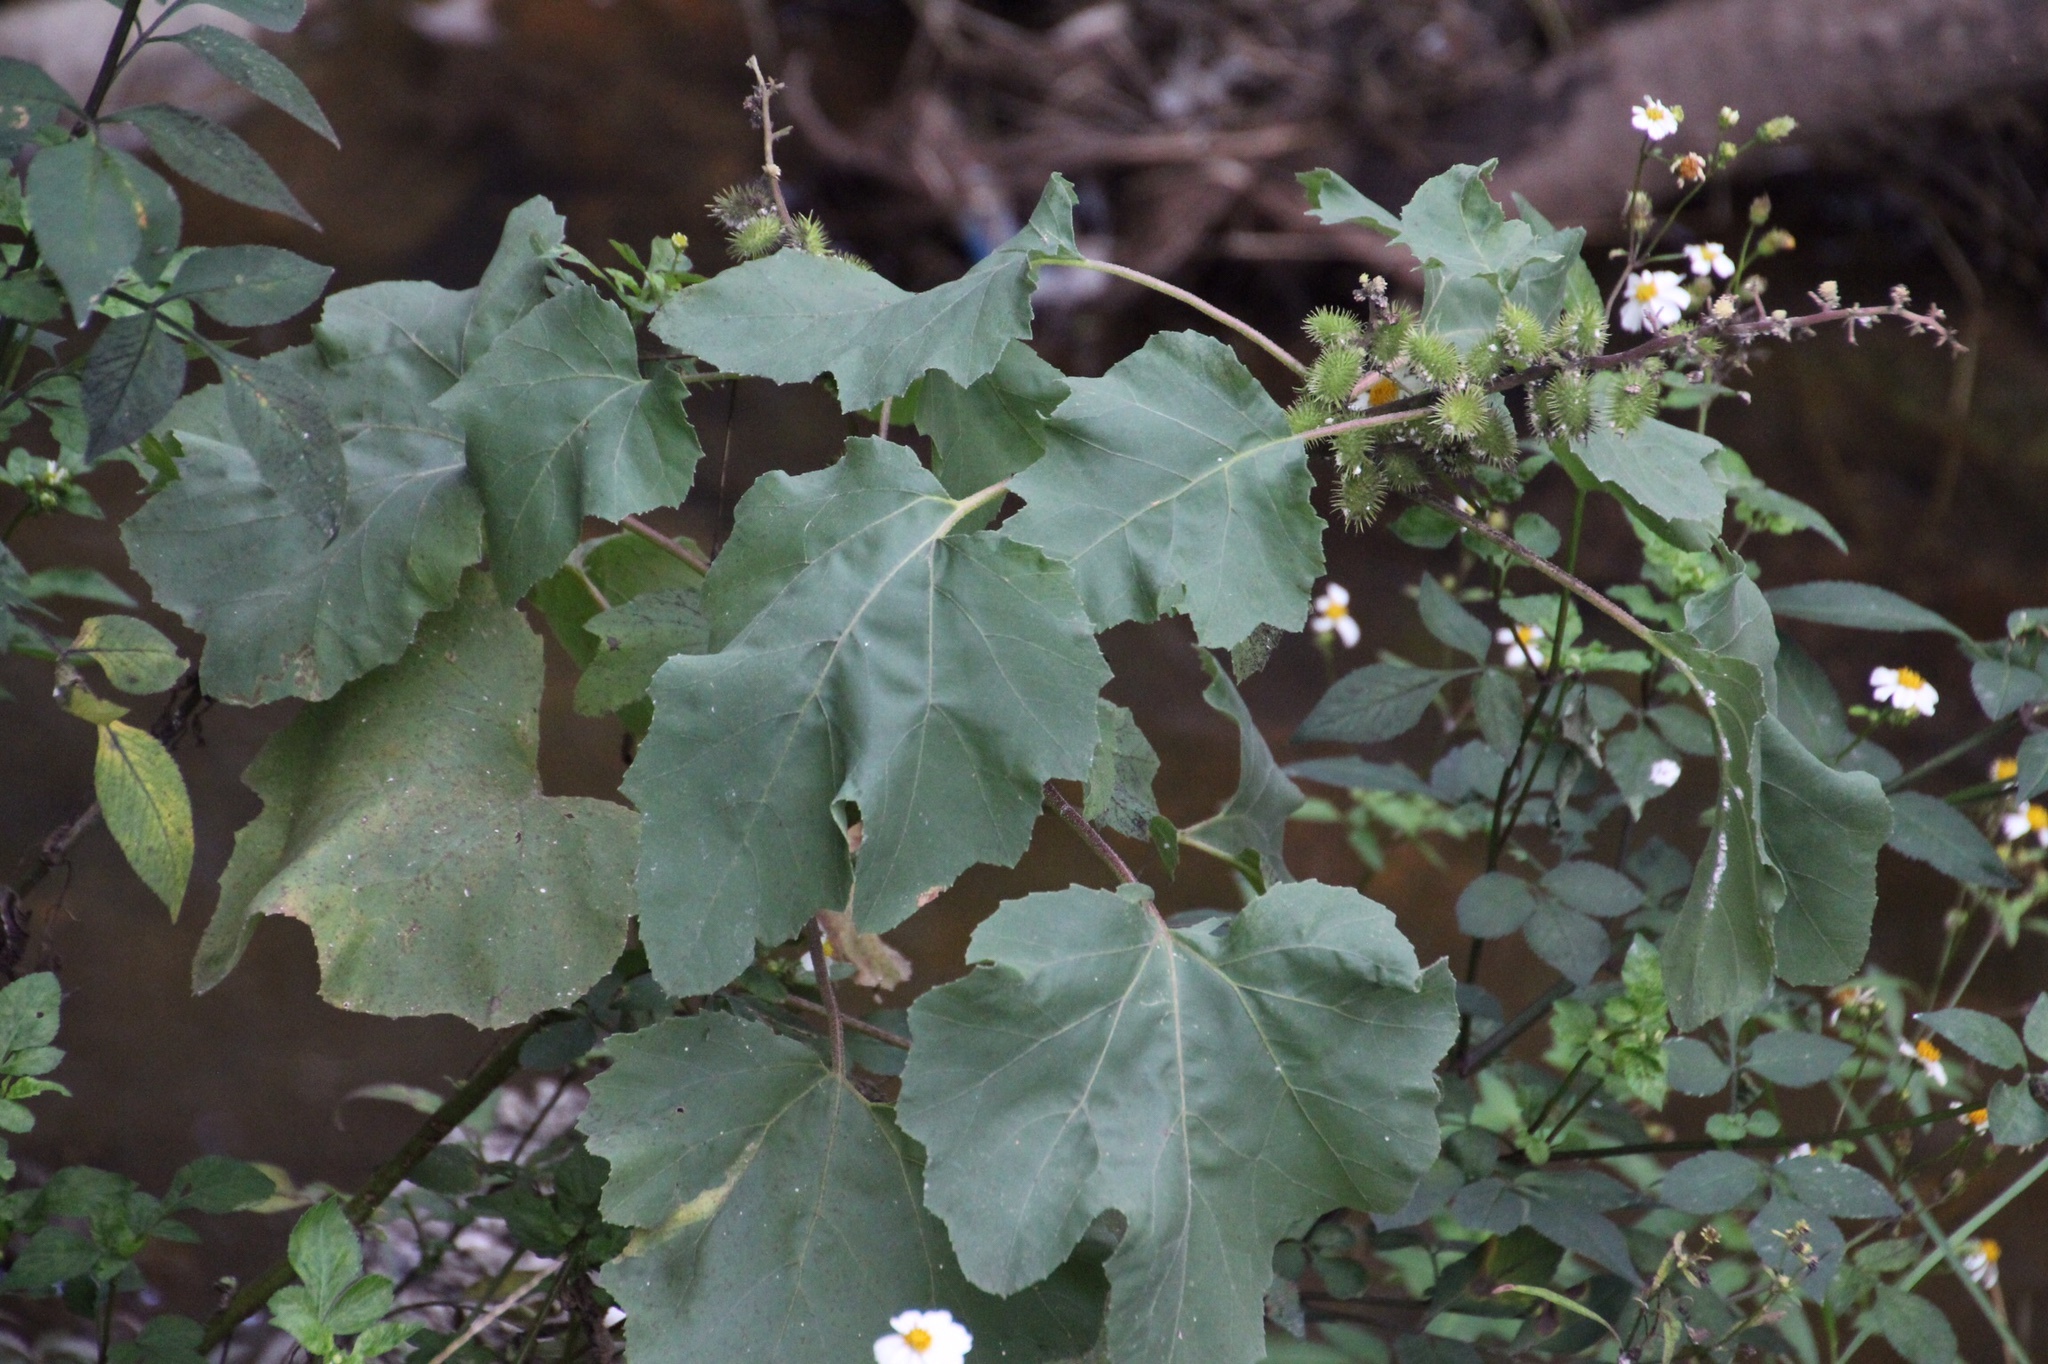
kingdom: Plantae
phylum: Tracheophyta
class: Magnoliopsida
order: Asterales
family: Asteraceae
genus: Xanthium
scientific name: Xanthium strumarium
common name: Rough cocklebur
